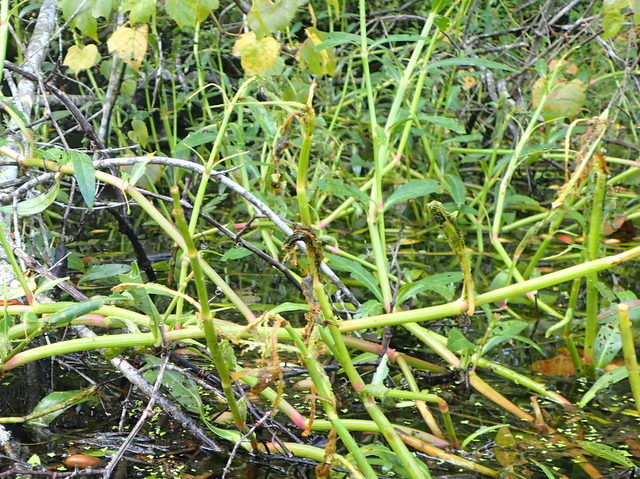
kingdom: Plantae
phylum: Tracheophyta
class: Magnoliopsida
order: Caryophyllales
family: Amaranthaceae
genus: Alternanthera
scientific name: Alternanthera philoxeroides
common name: Alligatorweed
